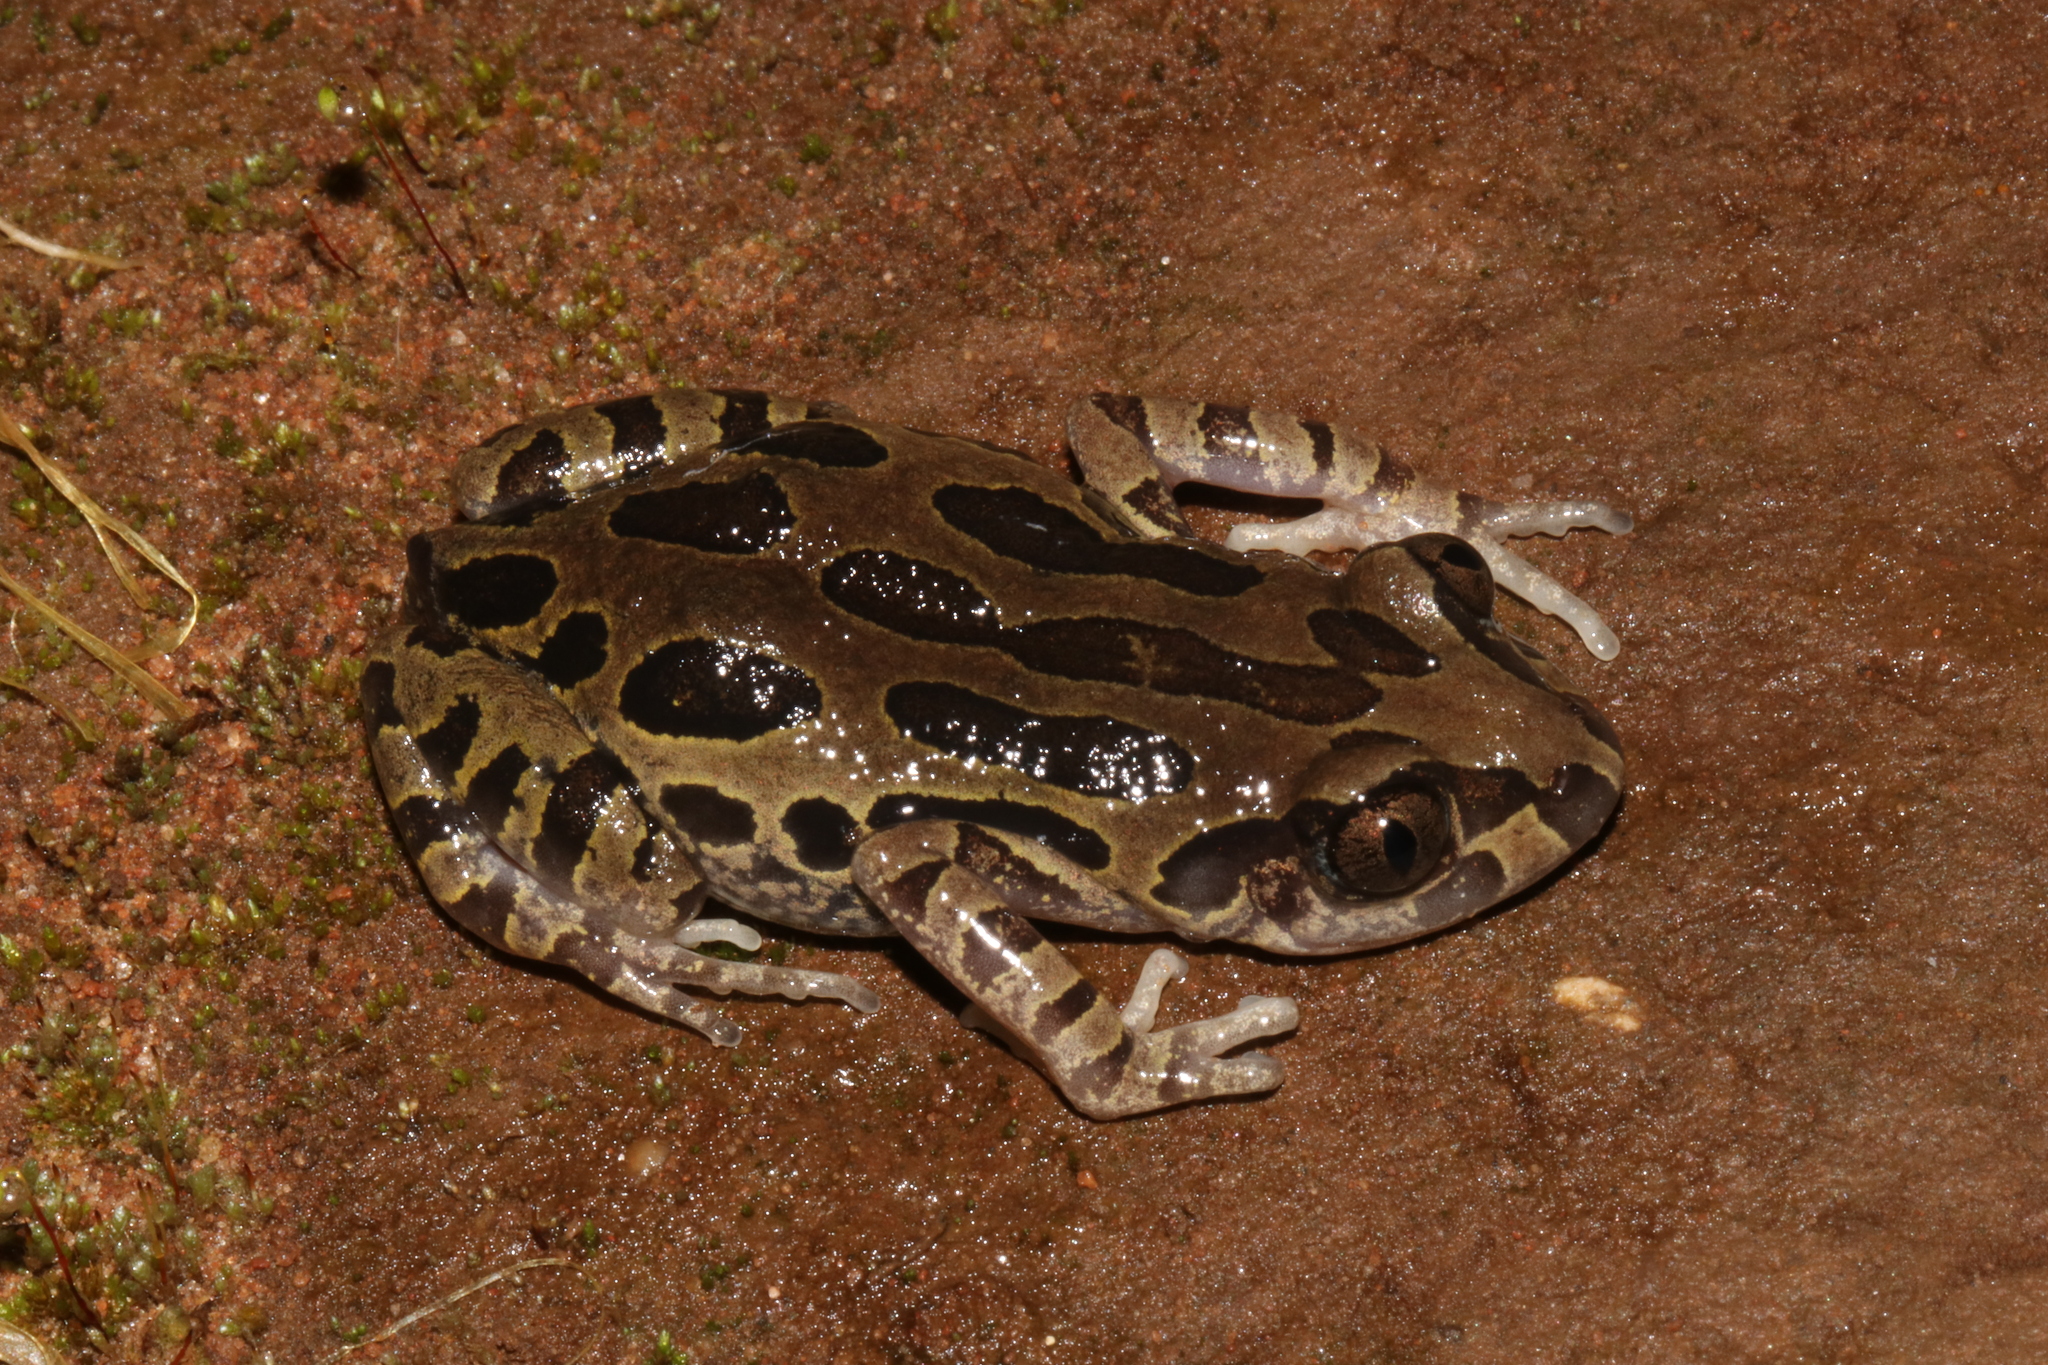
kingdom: Animalia
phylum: Chordata
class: Amphibia
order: Anura
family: Hyperoliidae
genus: Kassina
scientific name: Kassina senegalensis
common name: Senegal land frog
